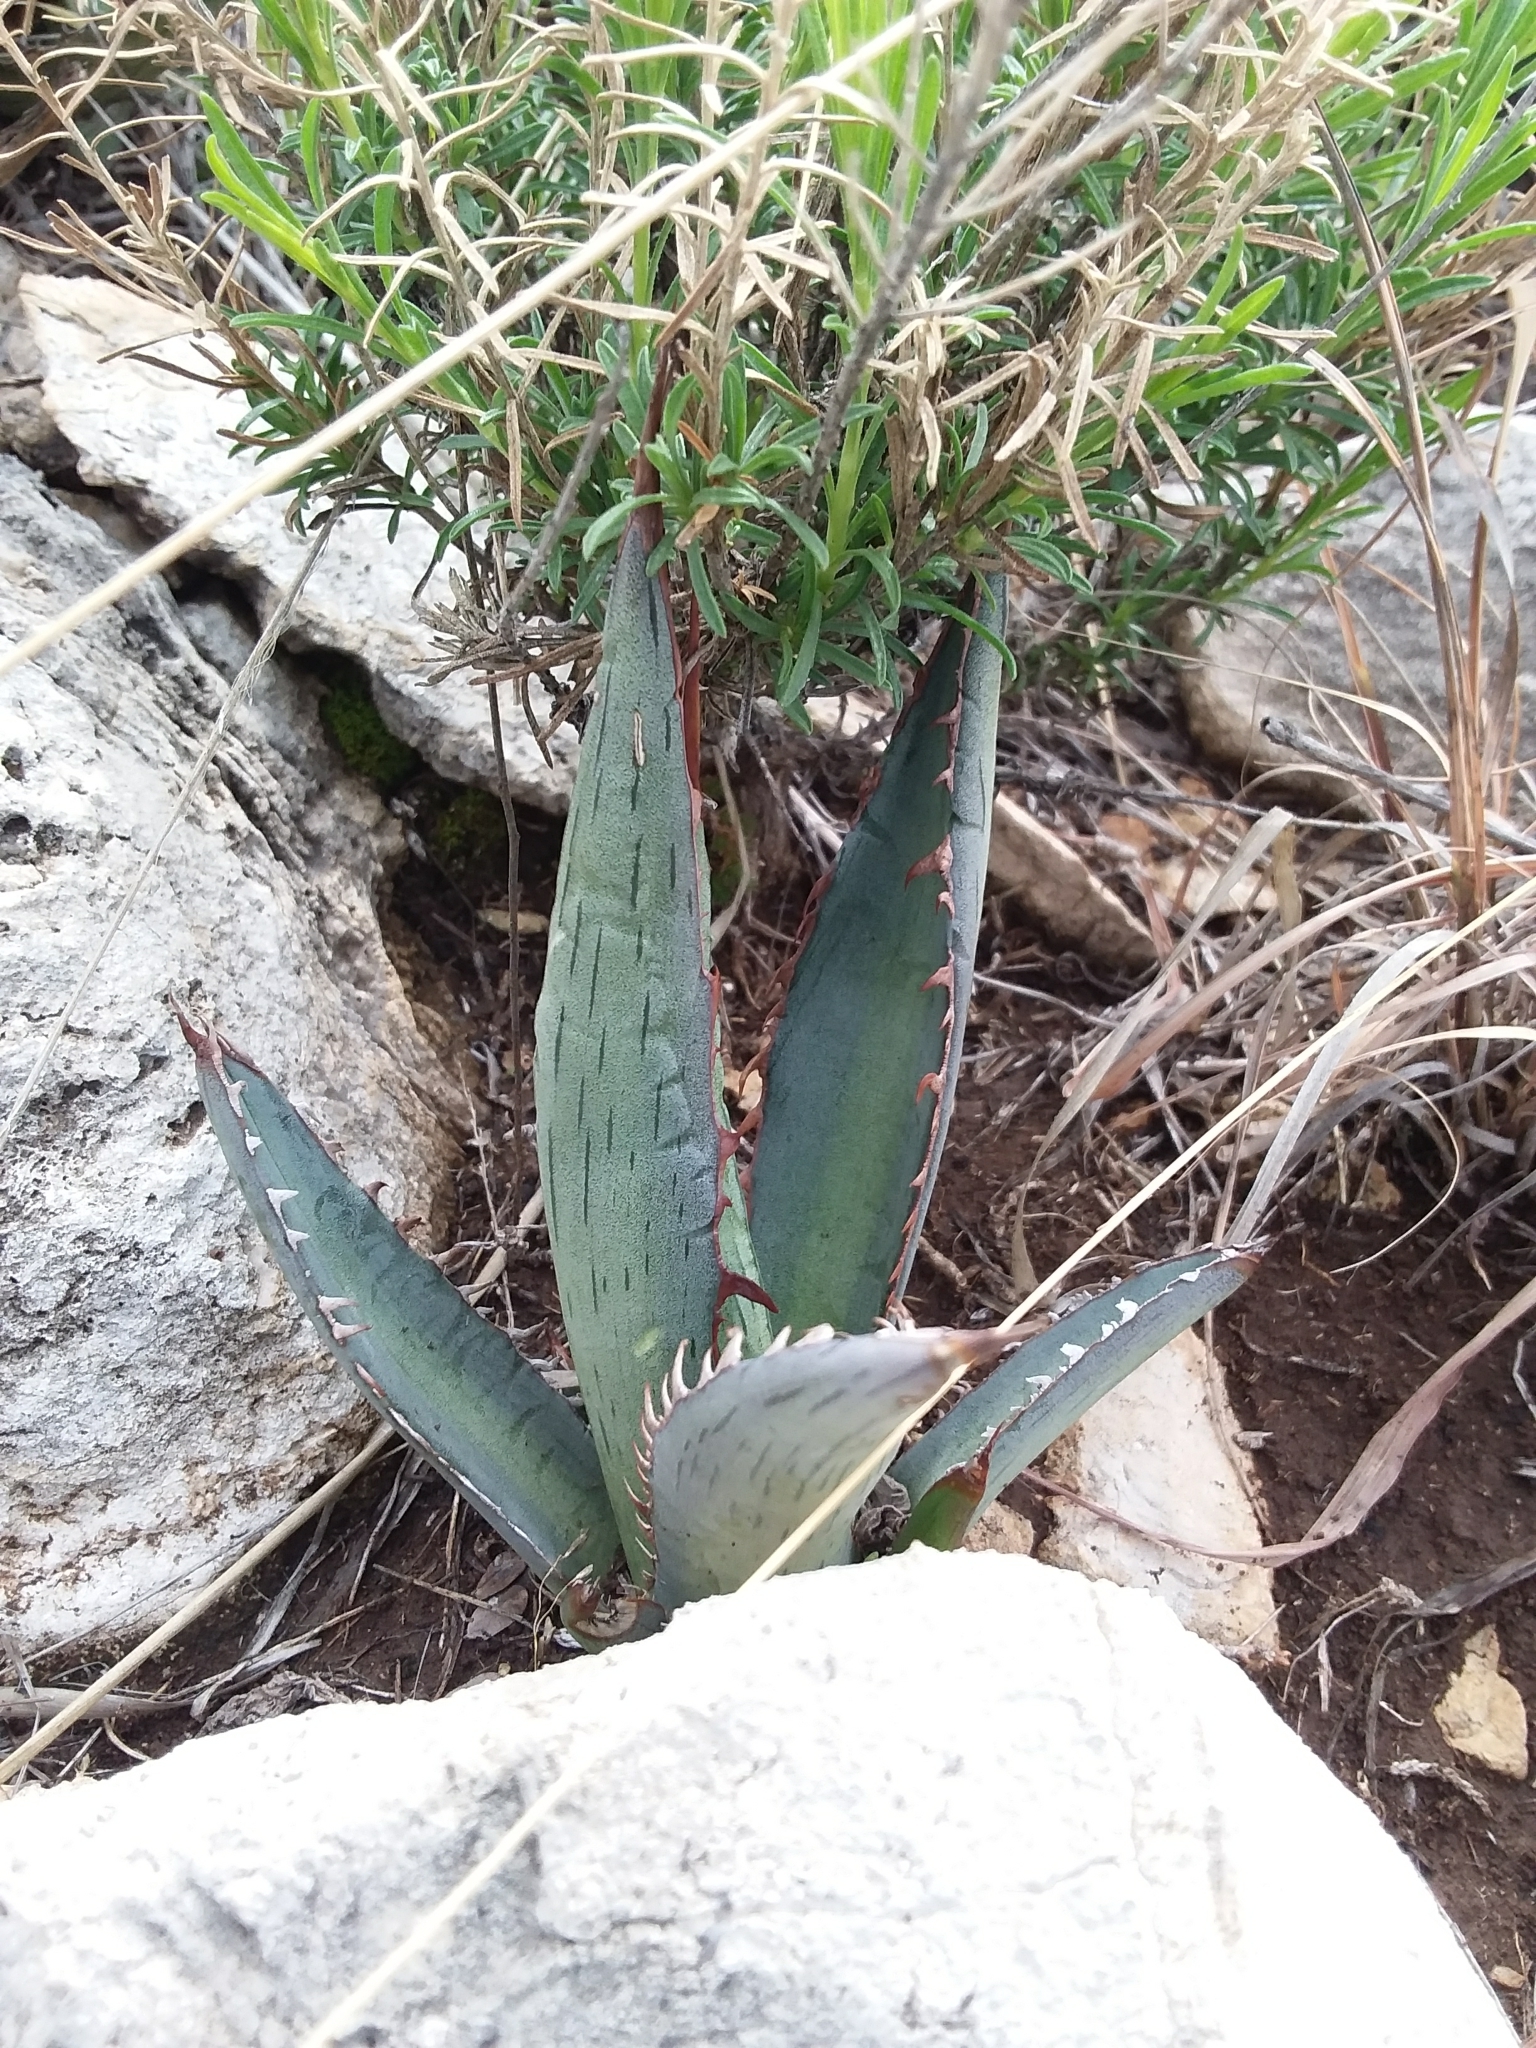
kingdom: Plantae
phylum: Tracheophyta
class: Liliopsida
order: Asparagales
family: Asparagaceae
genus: Agave
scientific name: Agave lechuguilla
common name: Lecheguilla agave
